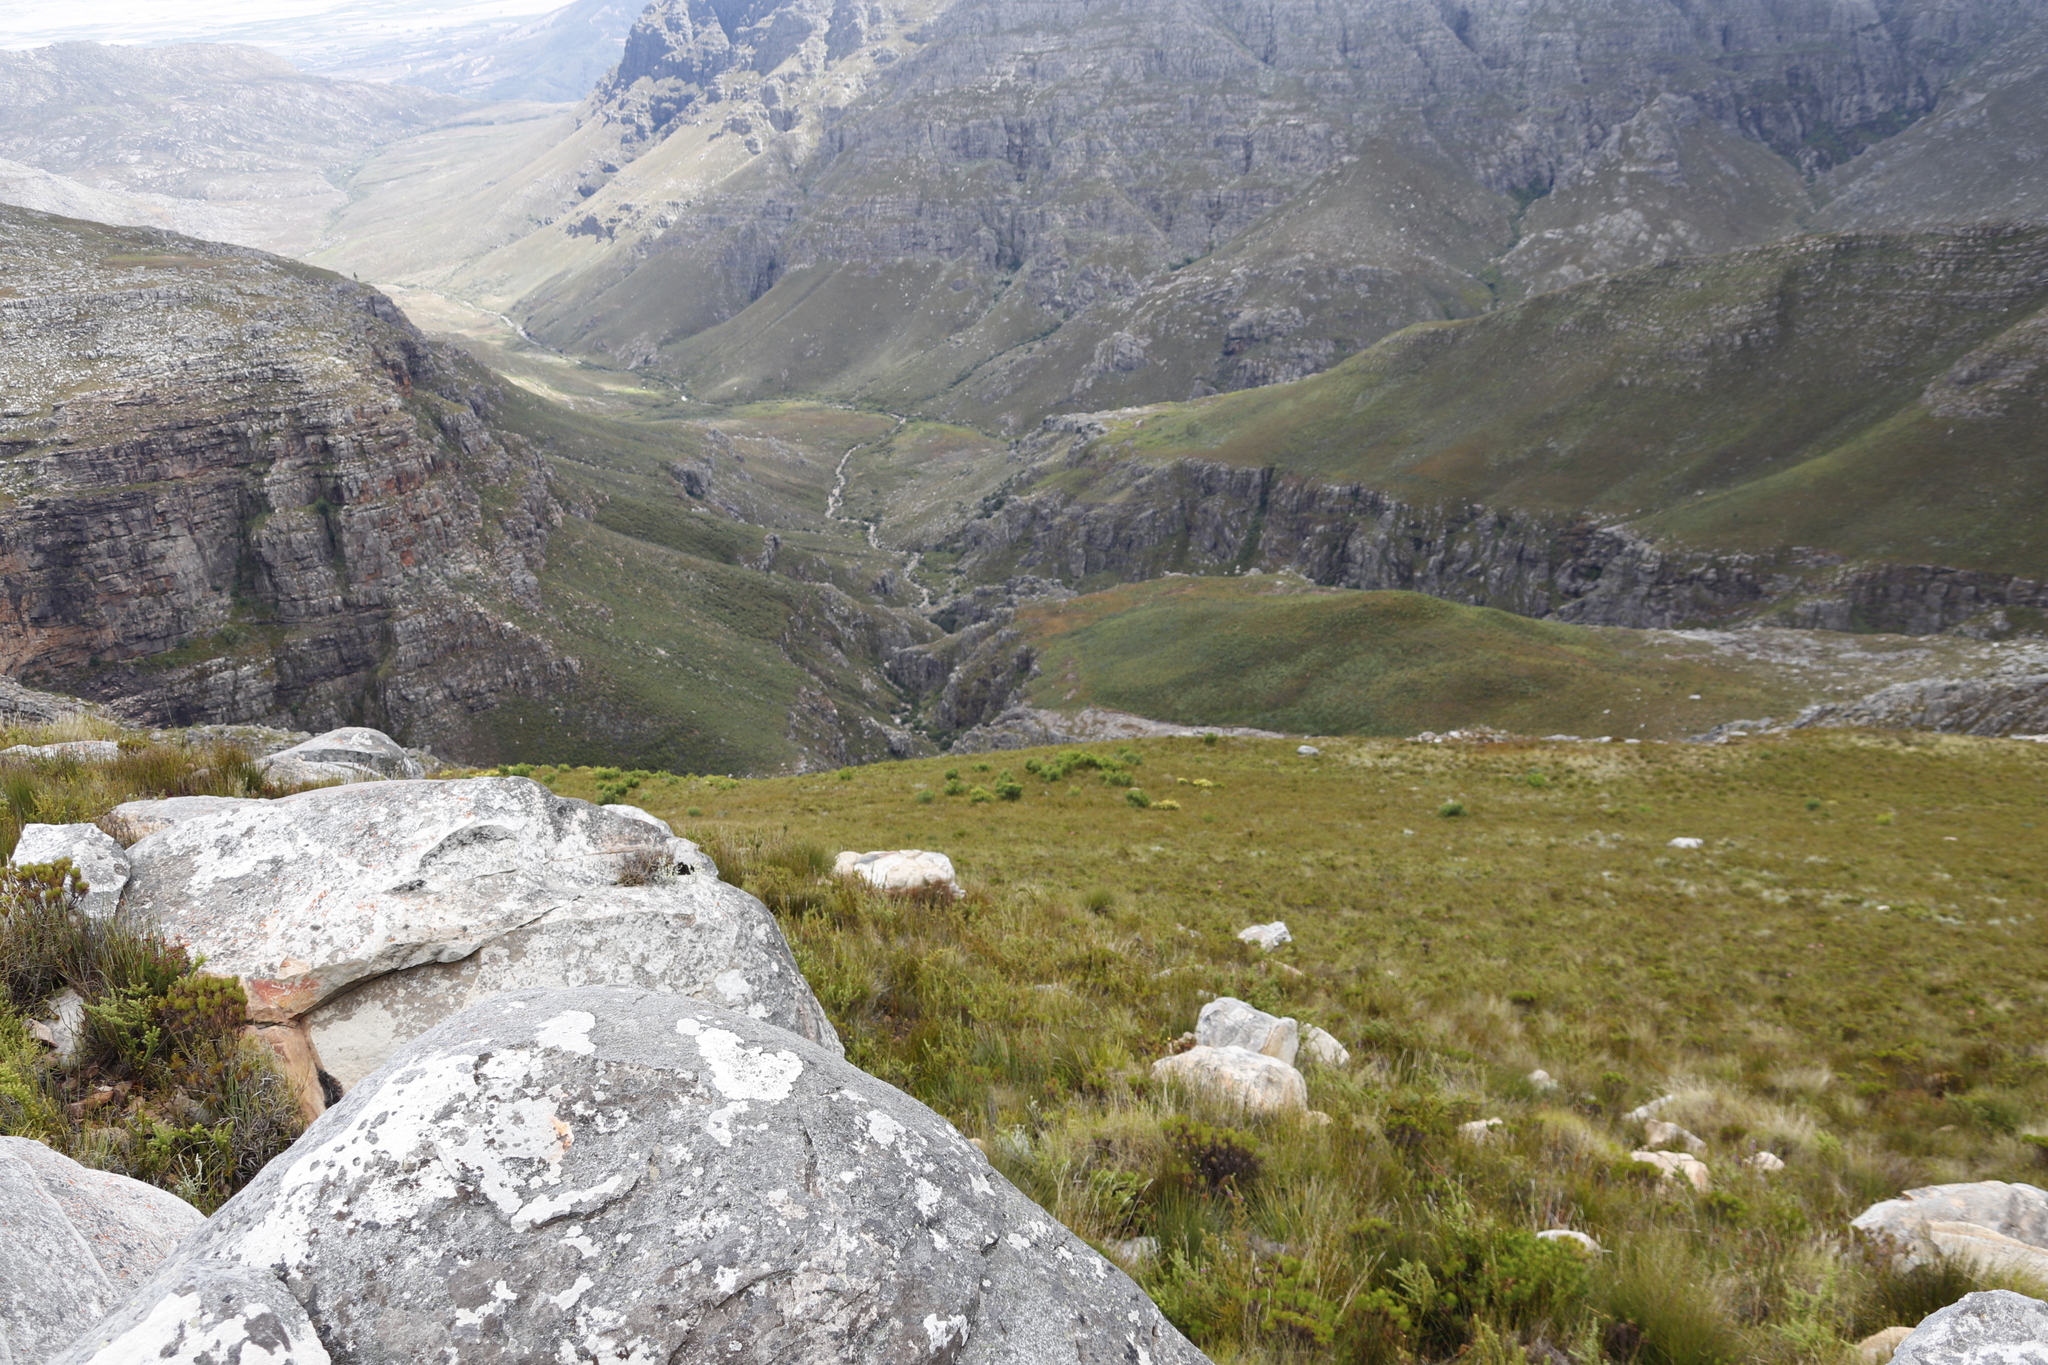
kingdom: Plantae
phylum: Tracheophyta
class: Magnoliopsida
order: Proteales
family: Proteaceae
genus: Protea
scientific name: Protea repens
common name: Sugarbush
